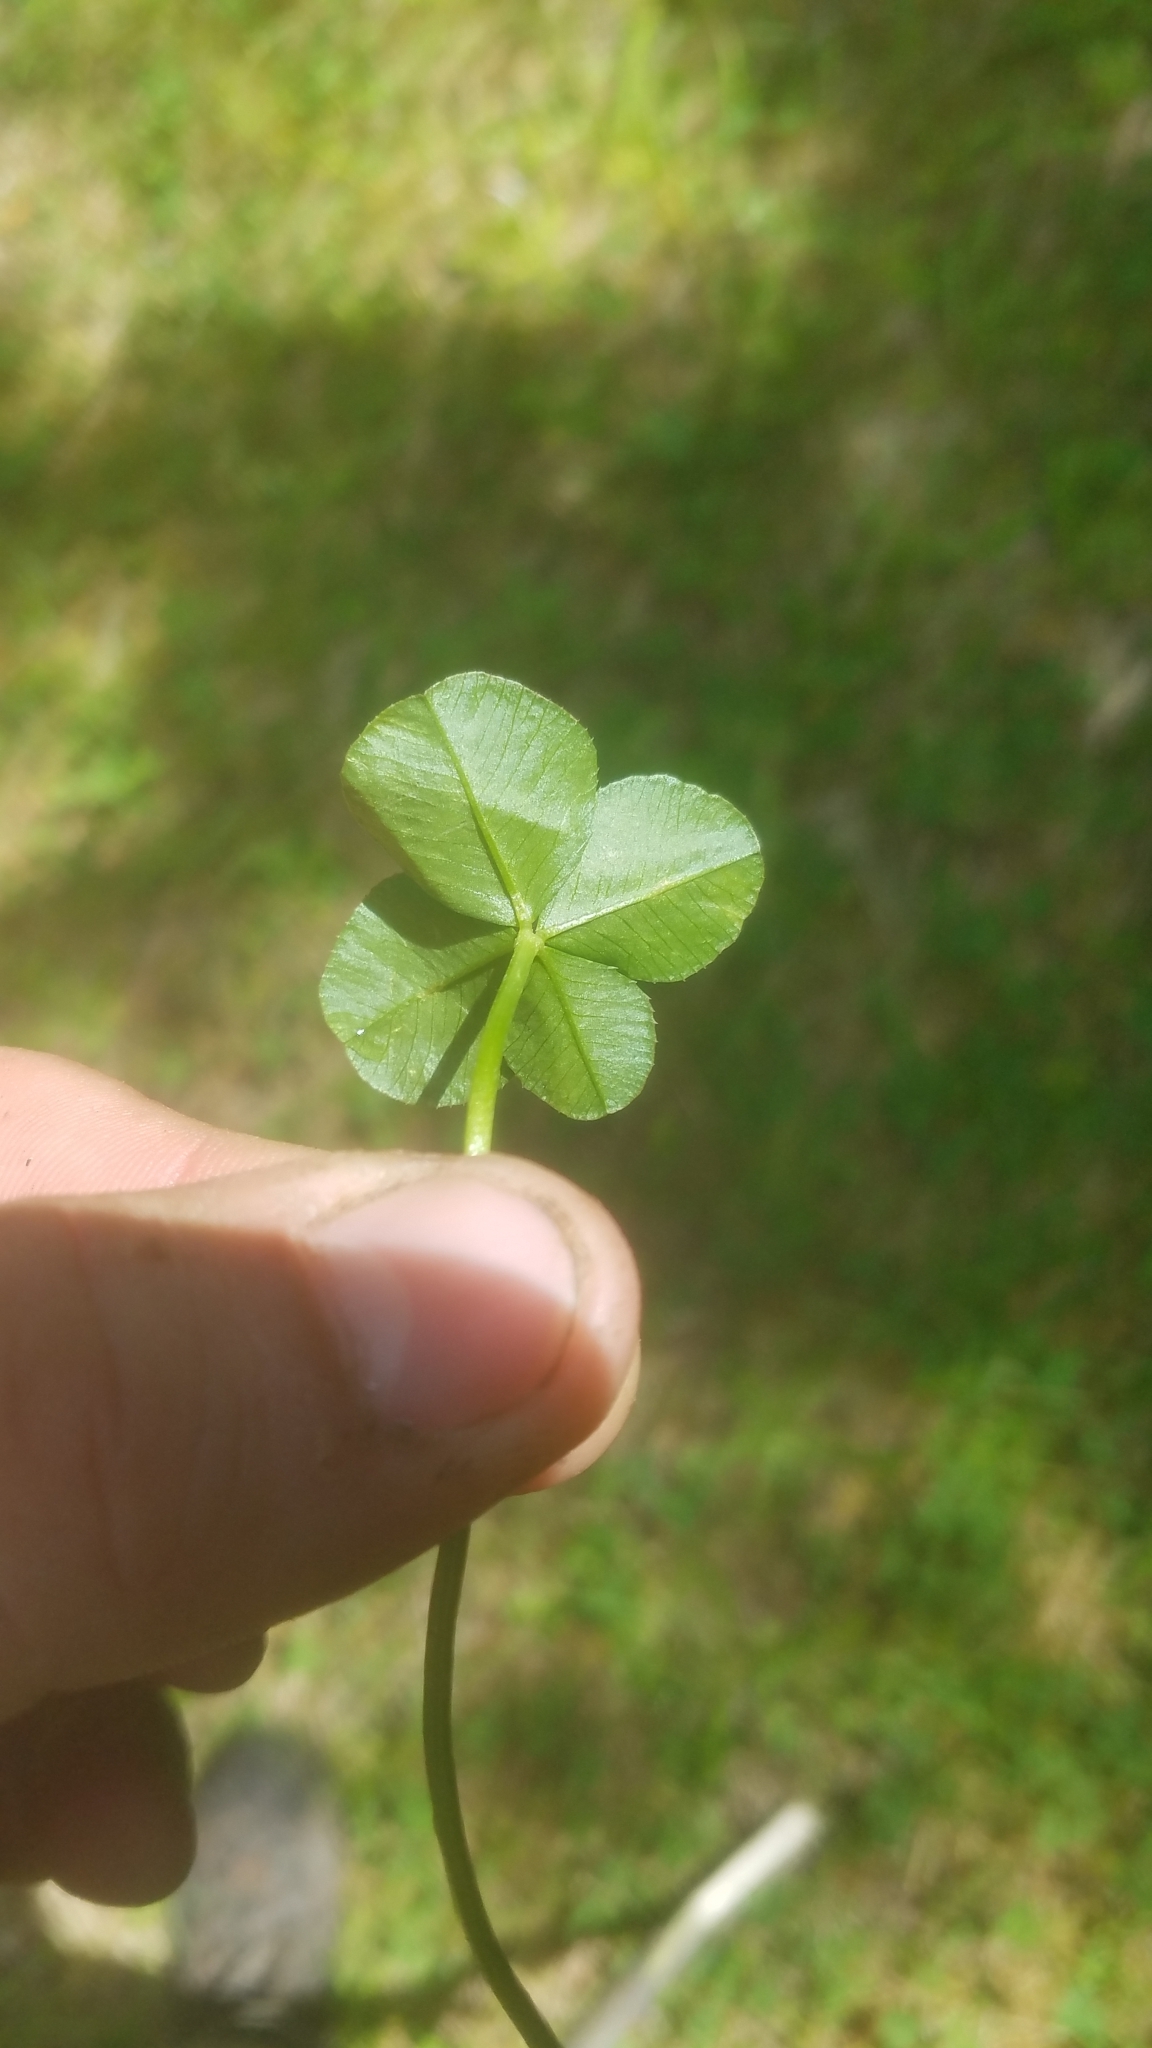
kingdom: Plantae
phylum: Tracheophyta
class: Magnoliopsida
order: Fabales
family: Fabaceae
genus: Trifolium
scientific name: Trifolium repens
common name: White clover
